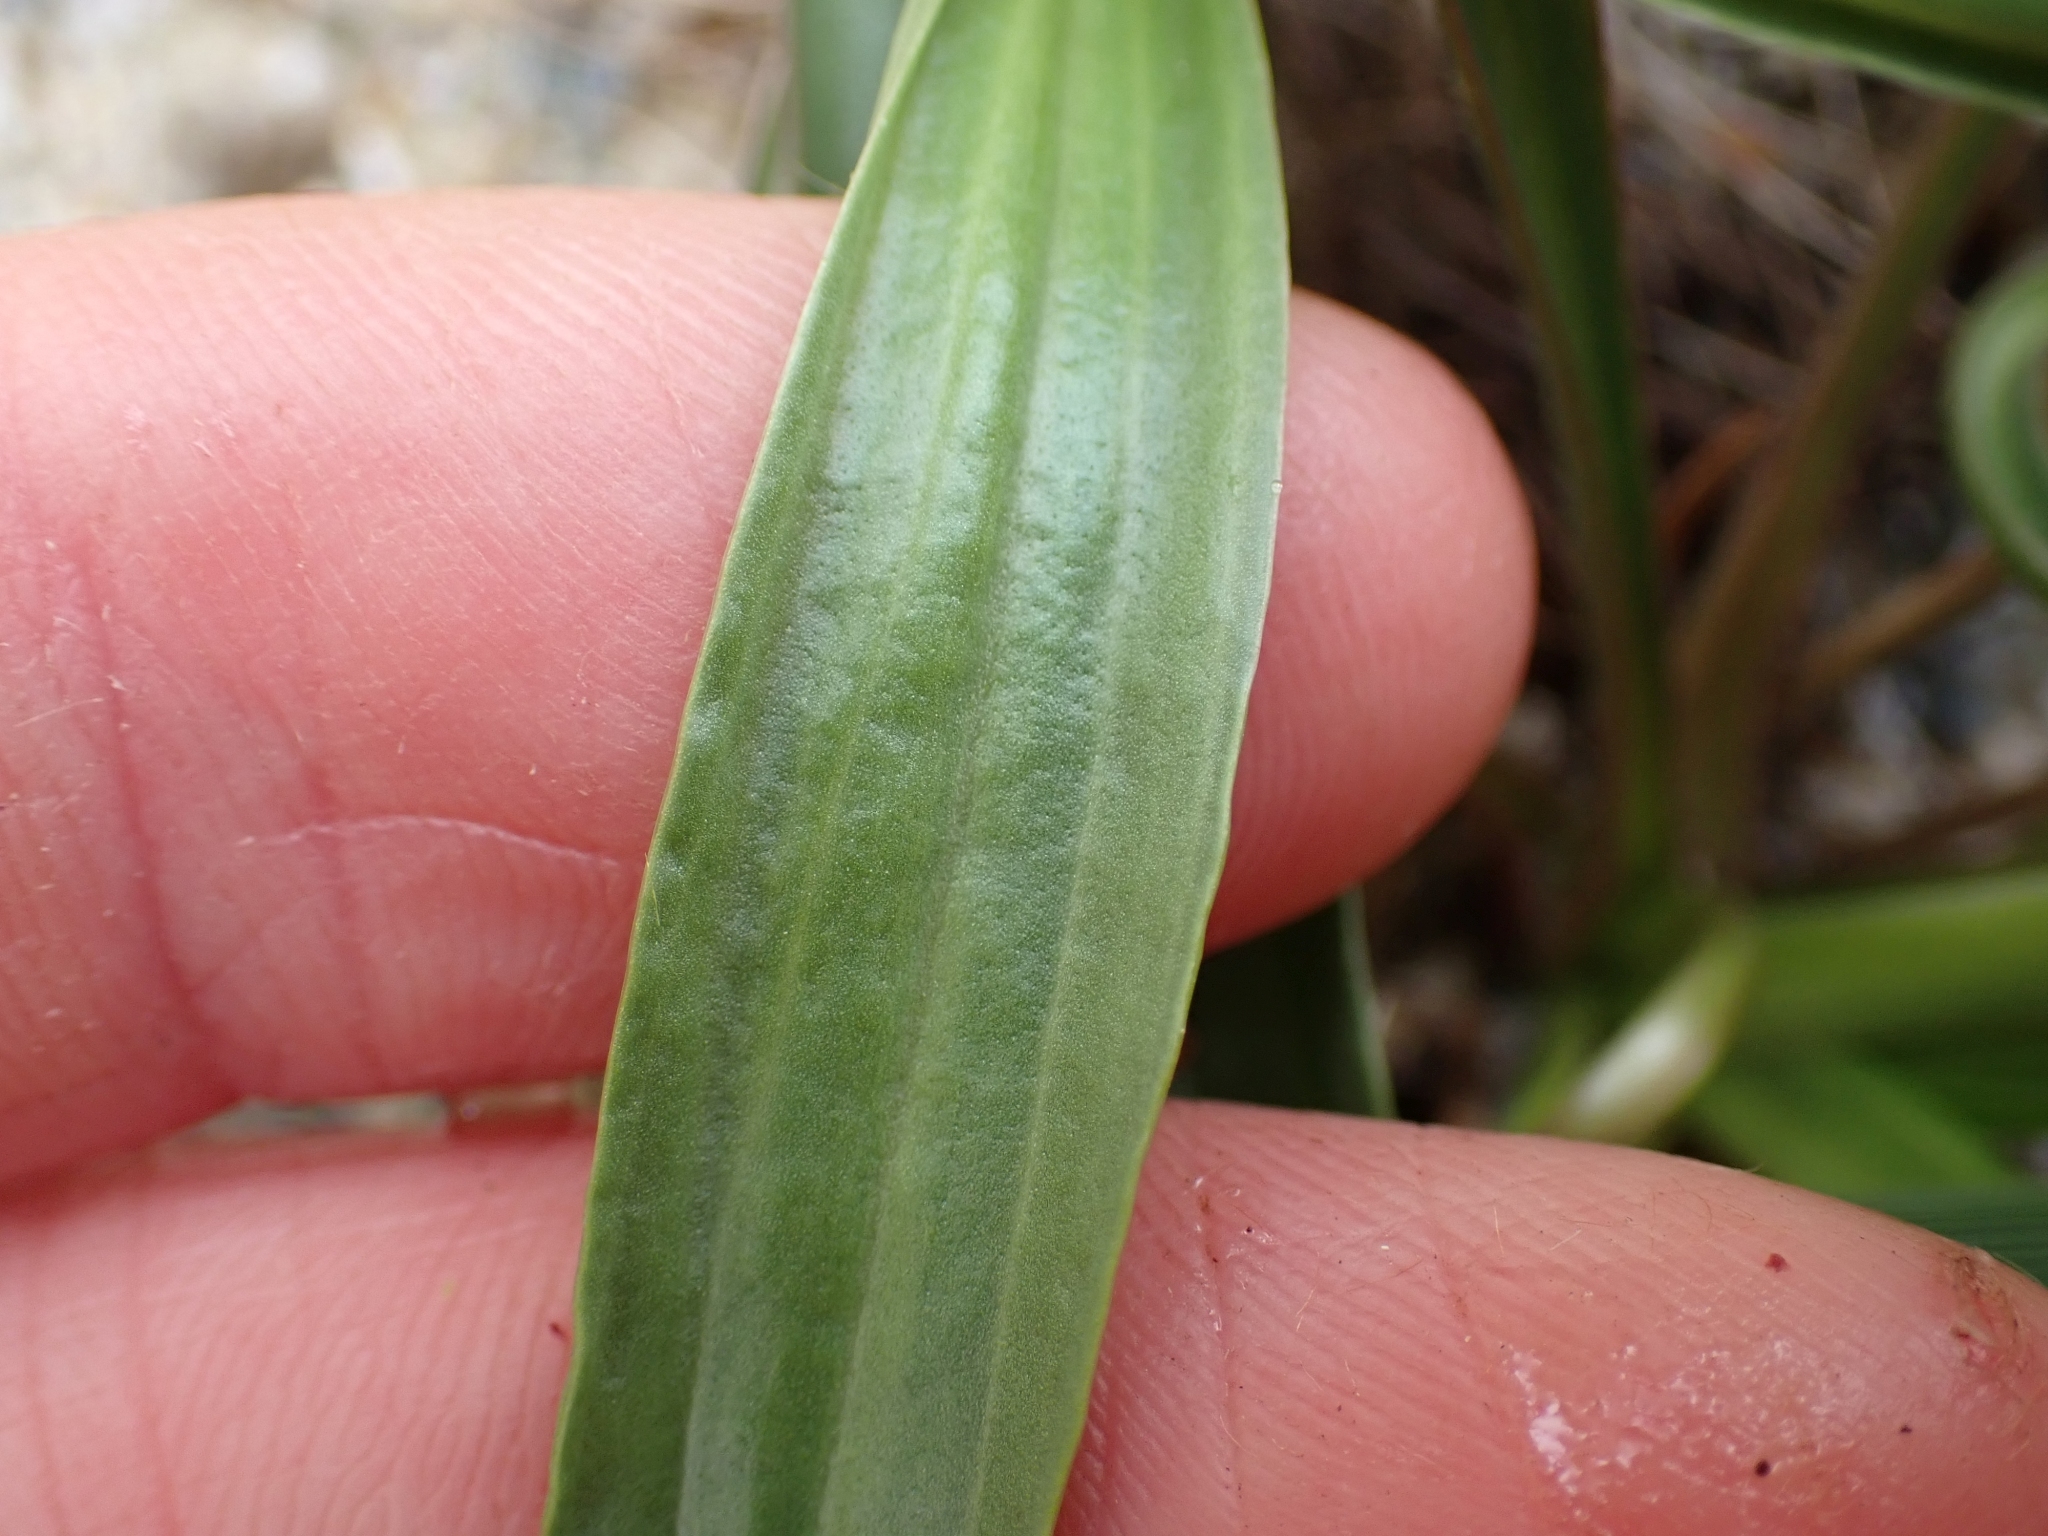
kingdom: Plantae
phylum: Tracheophyta
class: Magnoliopsida
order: Lamiales
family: Plantaginaceae
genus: Plantago
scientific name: Plantago maritima
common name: Sea plantain
